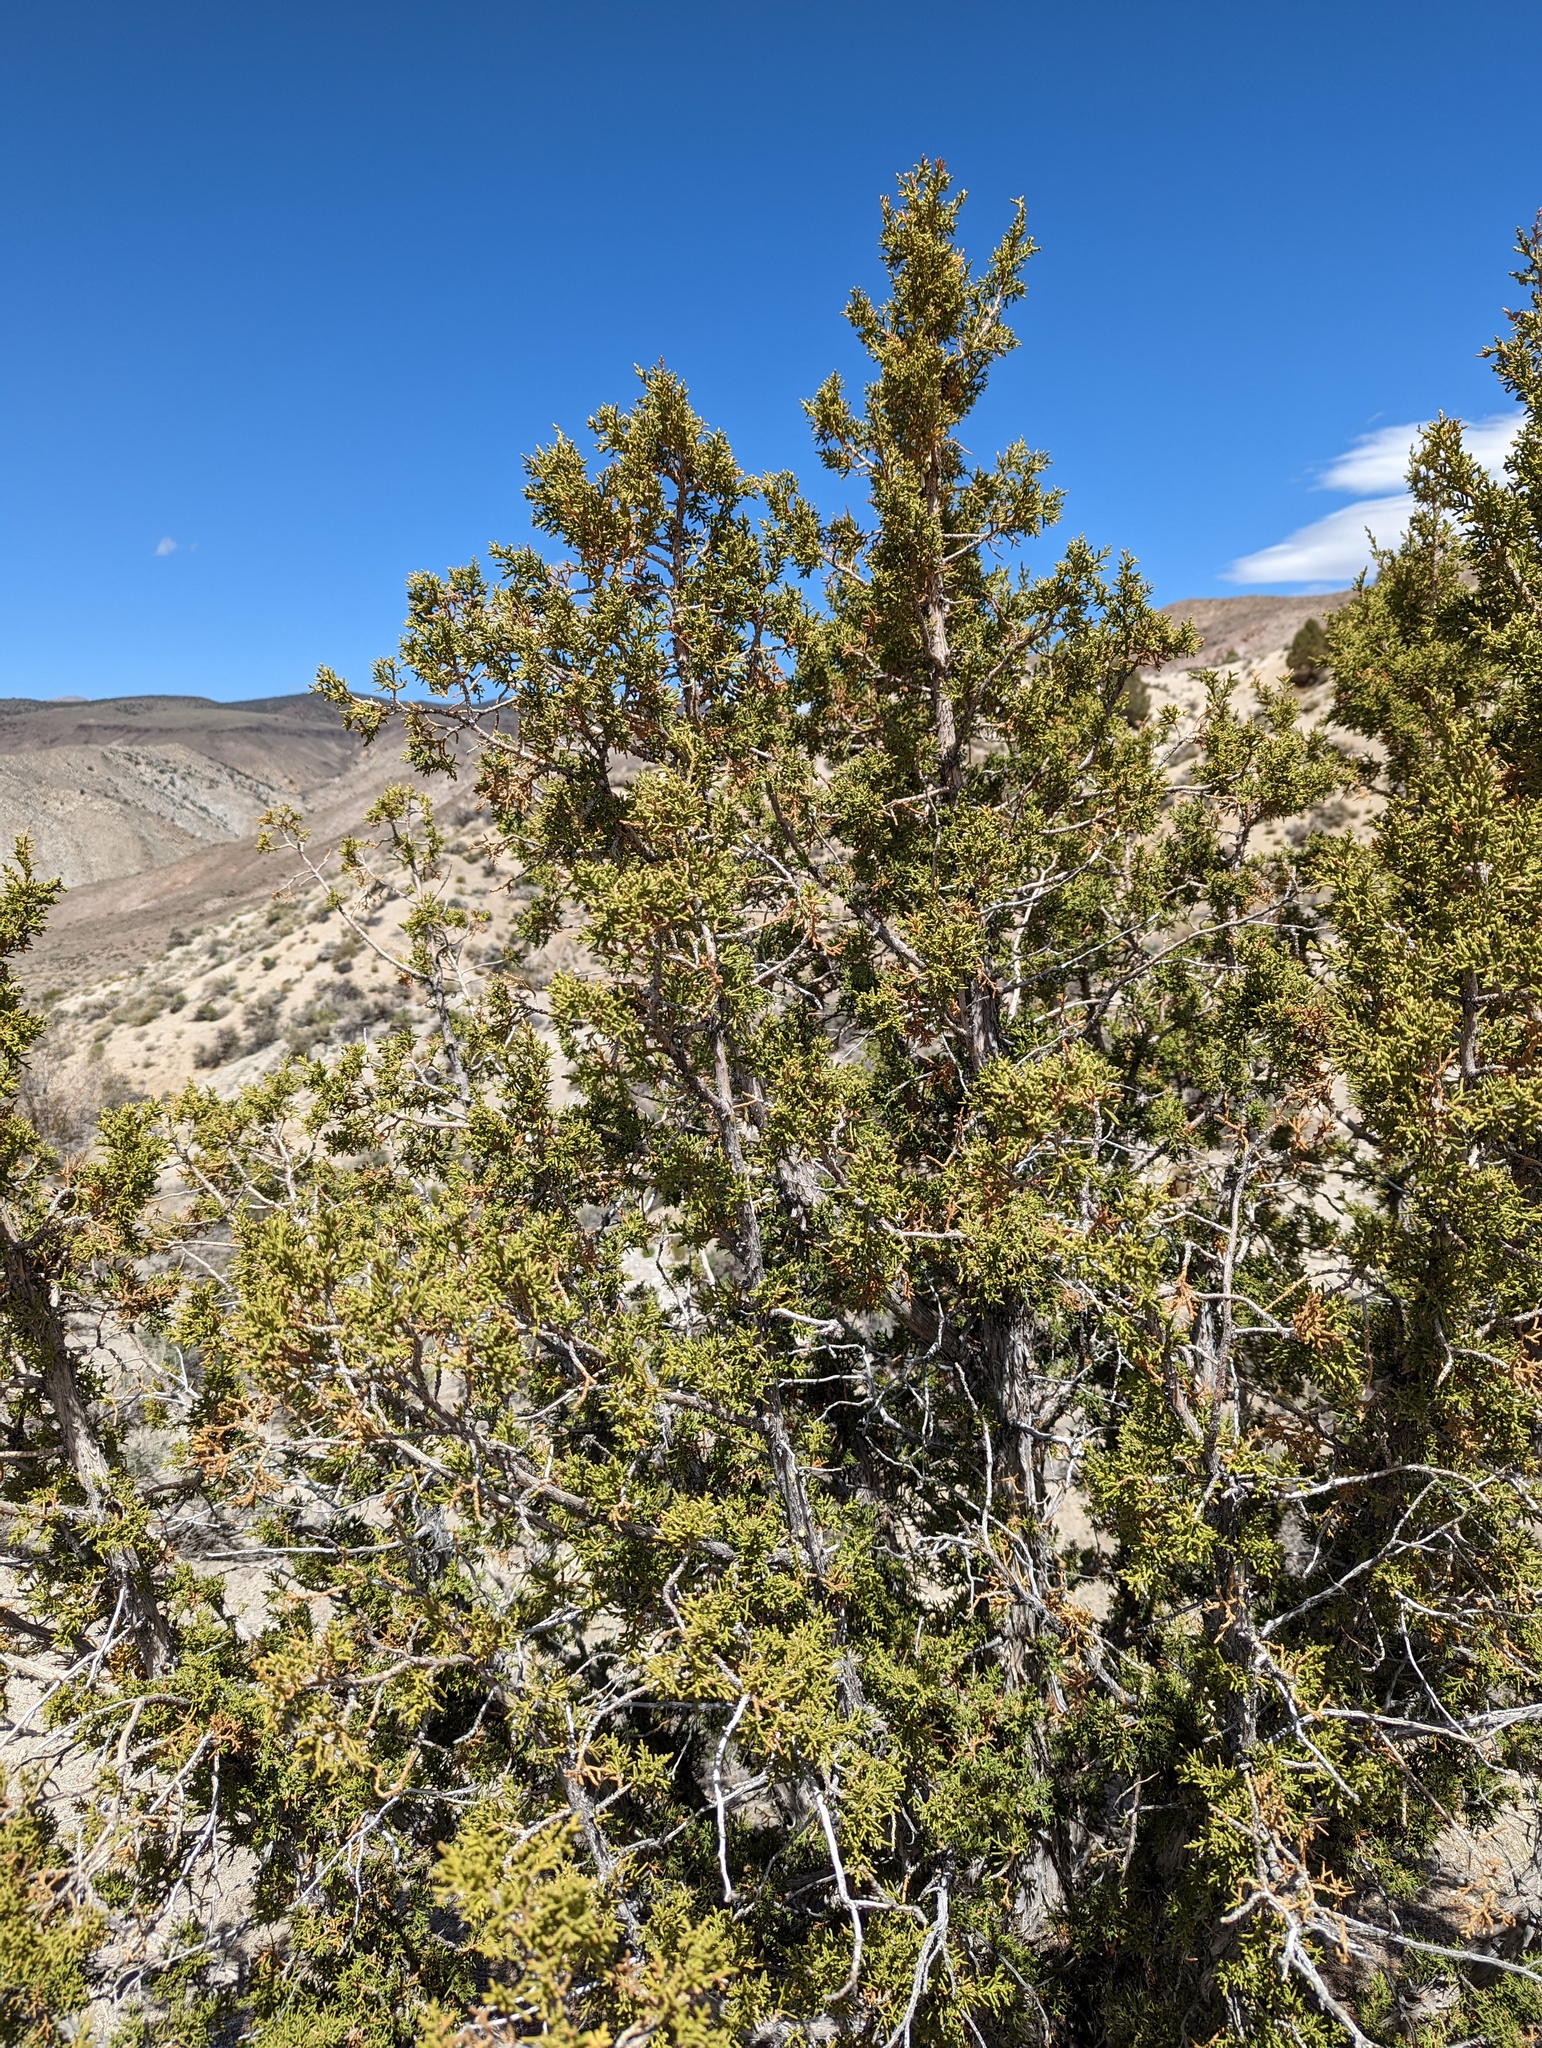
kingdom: Plantae
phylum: Tracheophyta
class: Pinopsida
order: Pinales
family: Cupressaceae
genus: Juniperus
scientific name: Juniperus osteosperma
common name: Utah juniper
